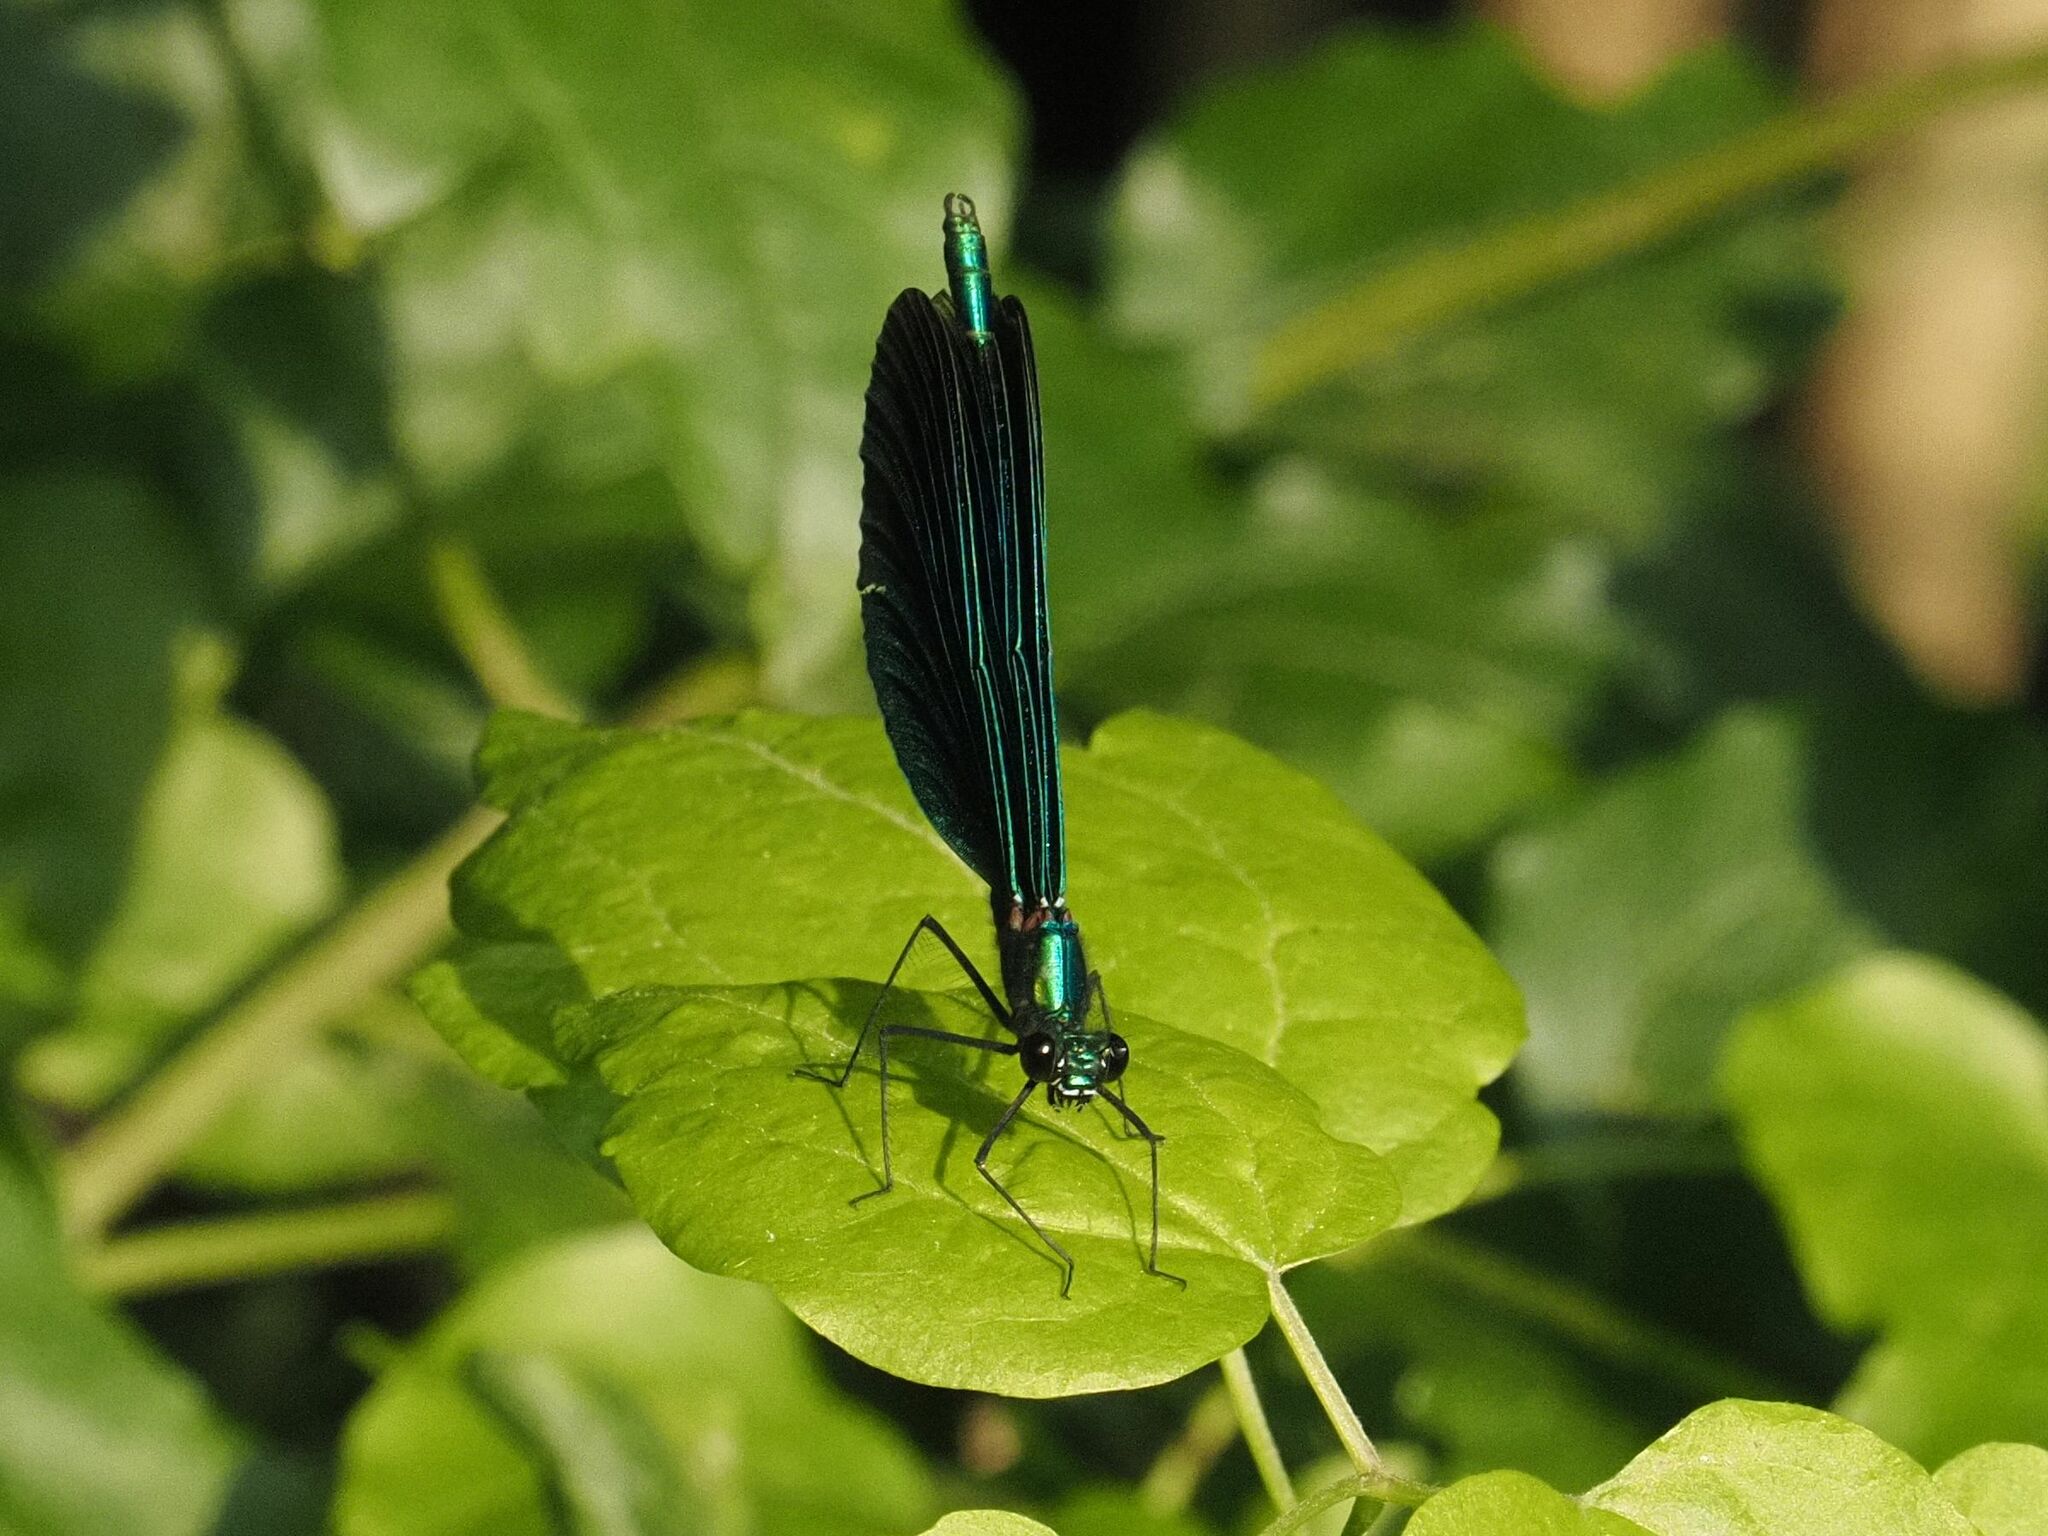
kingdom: Animalia
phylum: Arthropoda
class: Insecta
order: Odonata
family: Calopterygidae
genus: Calopteryx
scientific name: Calopteryx virgo
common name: Beautiful demoiselle
